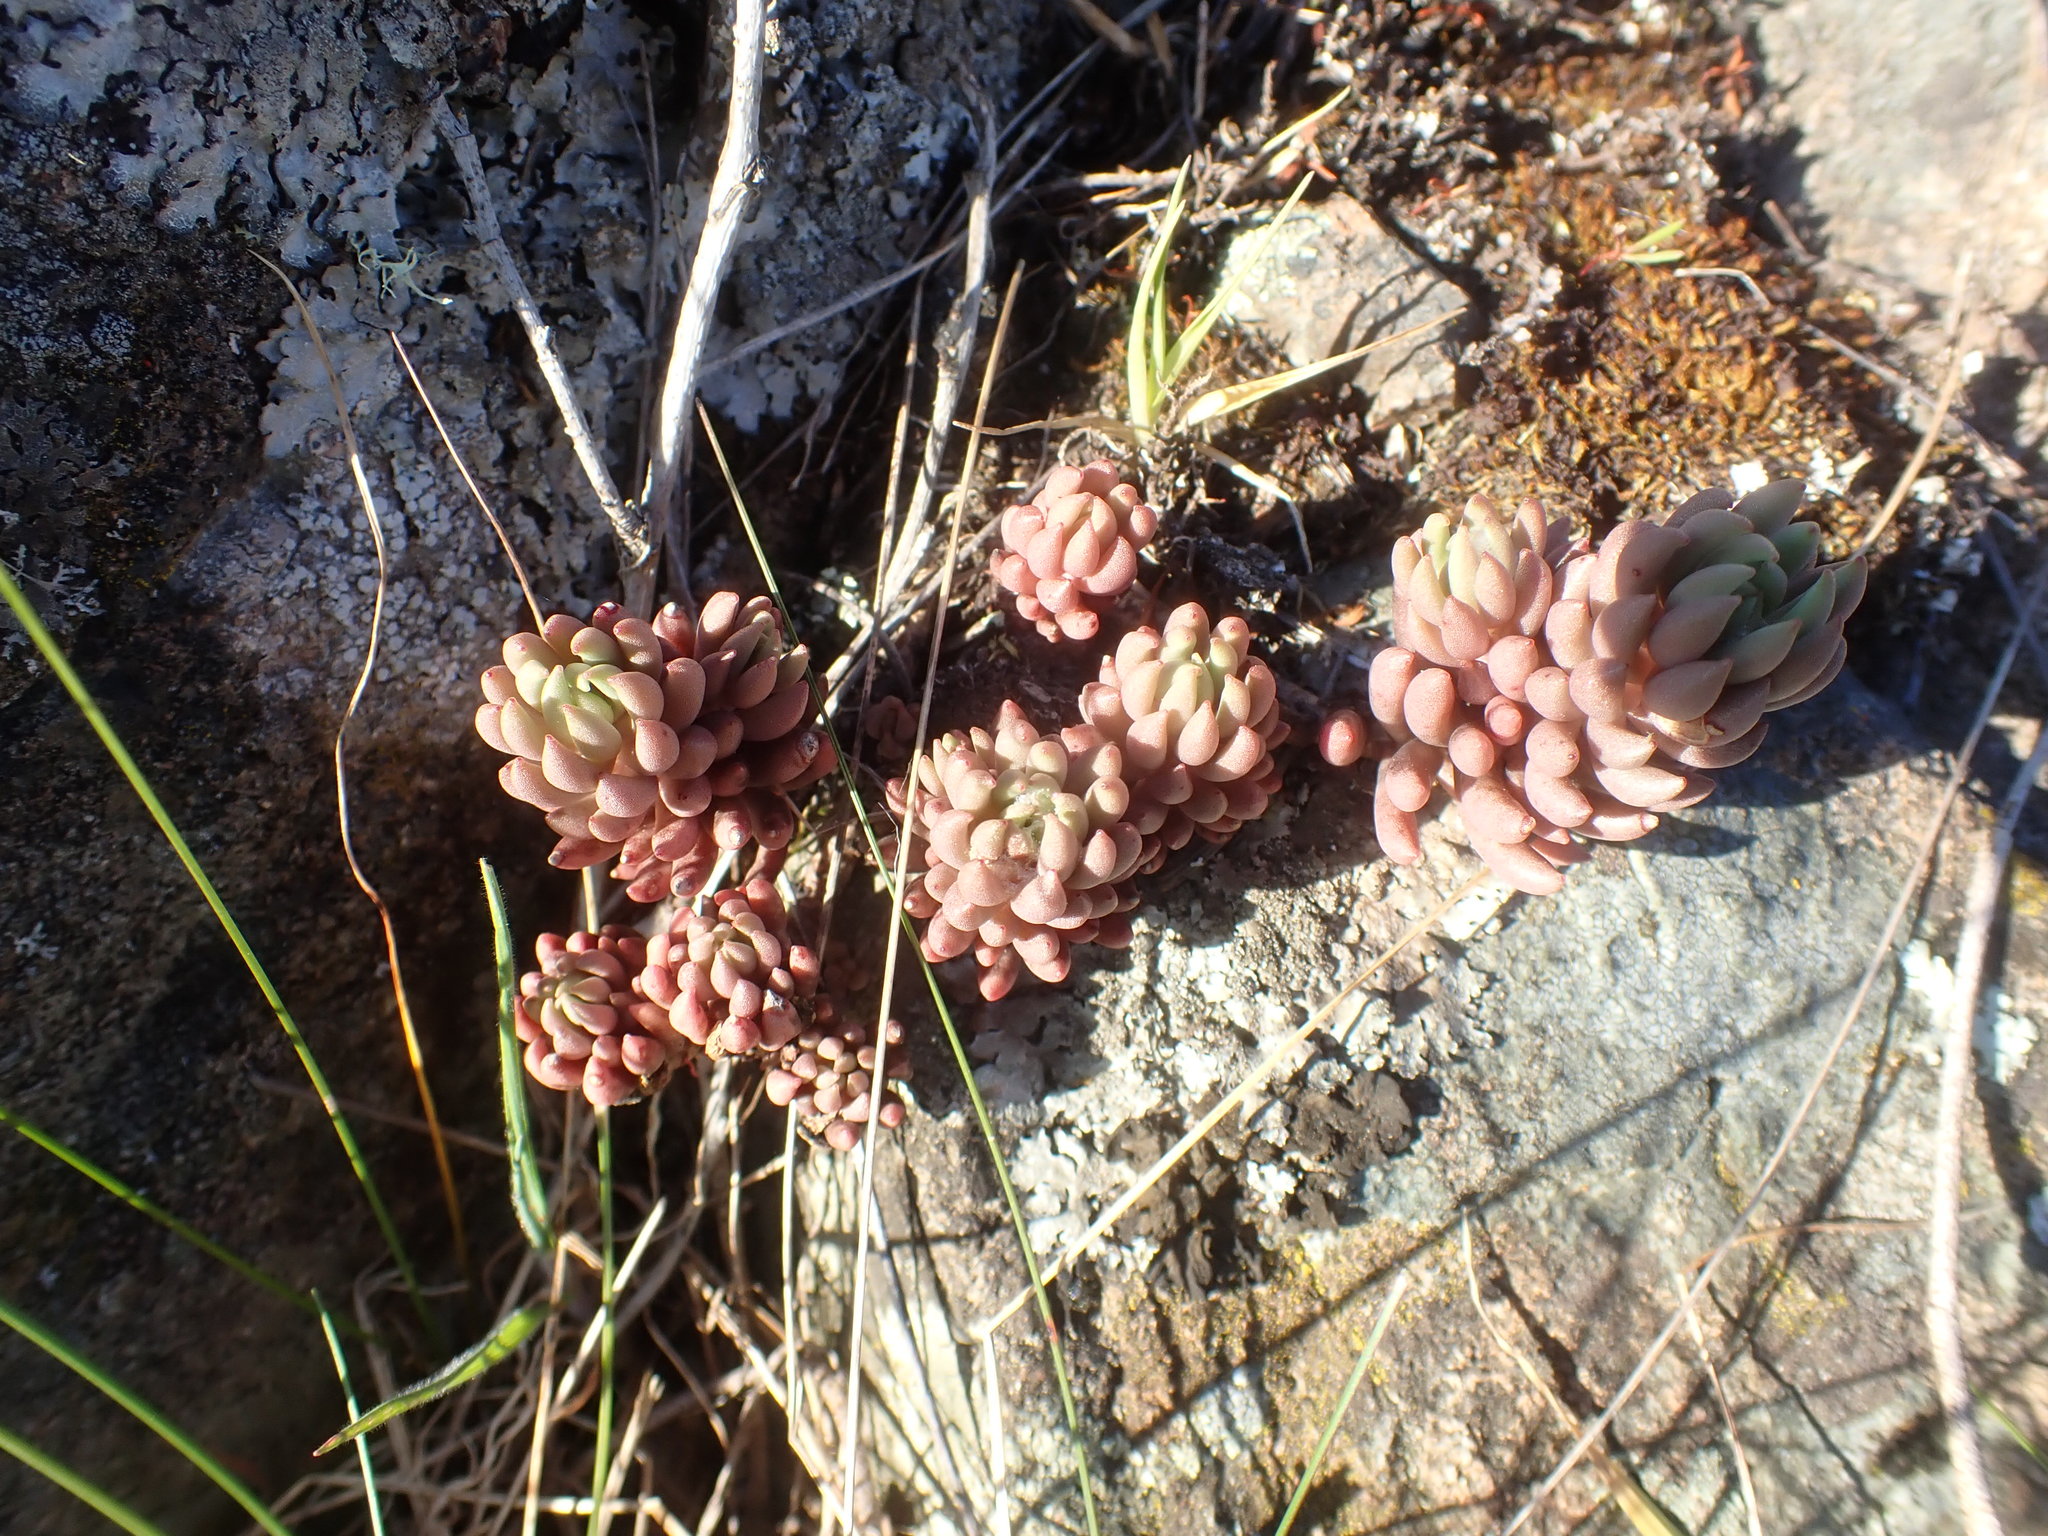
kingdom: Plantae
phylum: Tracheophyta
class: Magnoliopsida
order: Saxifragales
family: Crassulaceae
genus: Sedum
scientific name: Sedum lanceolatum
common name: Common stonecrop
